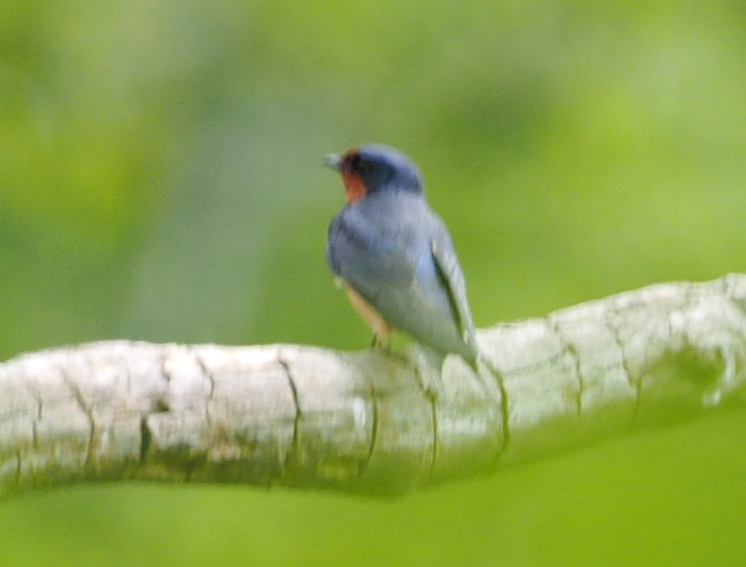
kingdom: Animalia
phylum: Chordata
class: Aves
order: Passeriformes
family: Hirundinidae
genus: Hirundo
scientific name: Hirundo rustica
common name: Barn swallow
